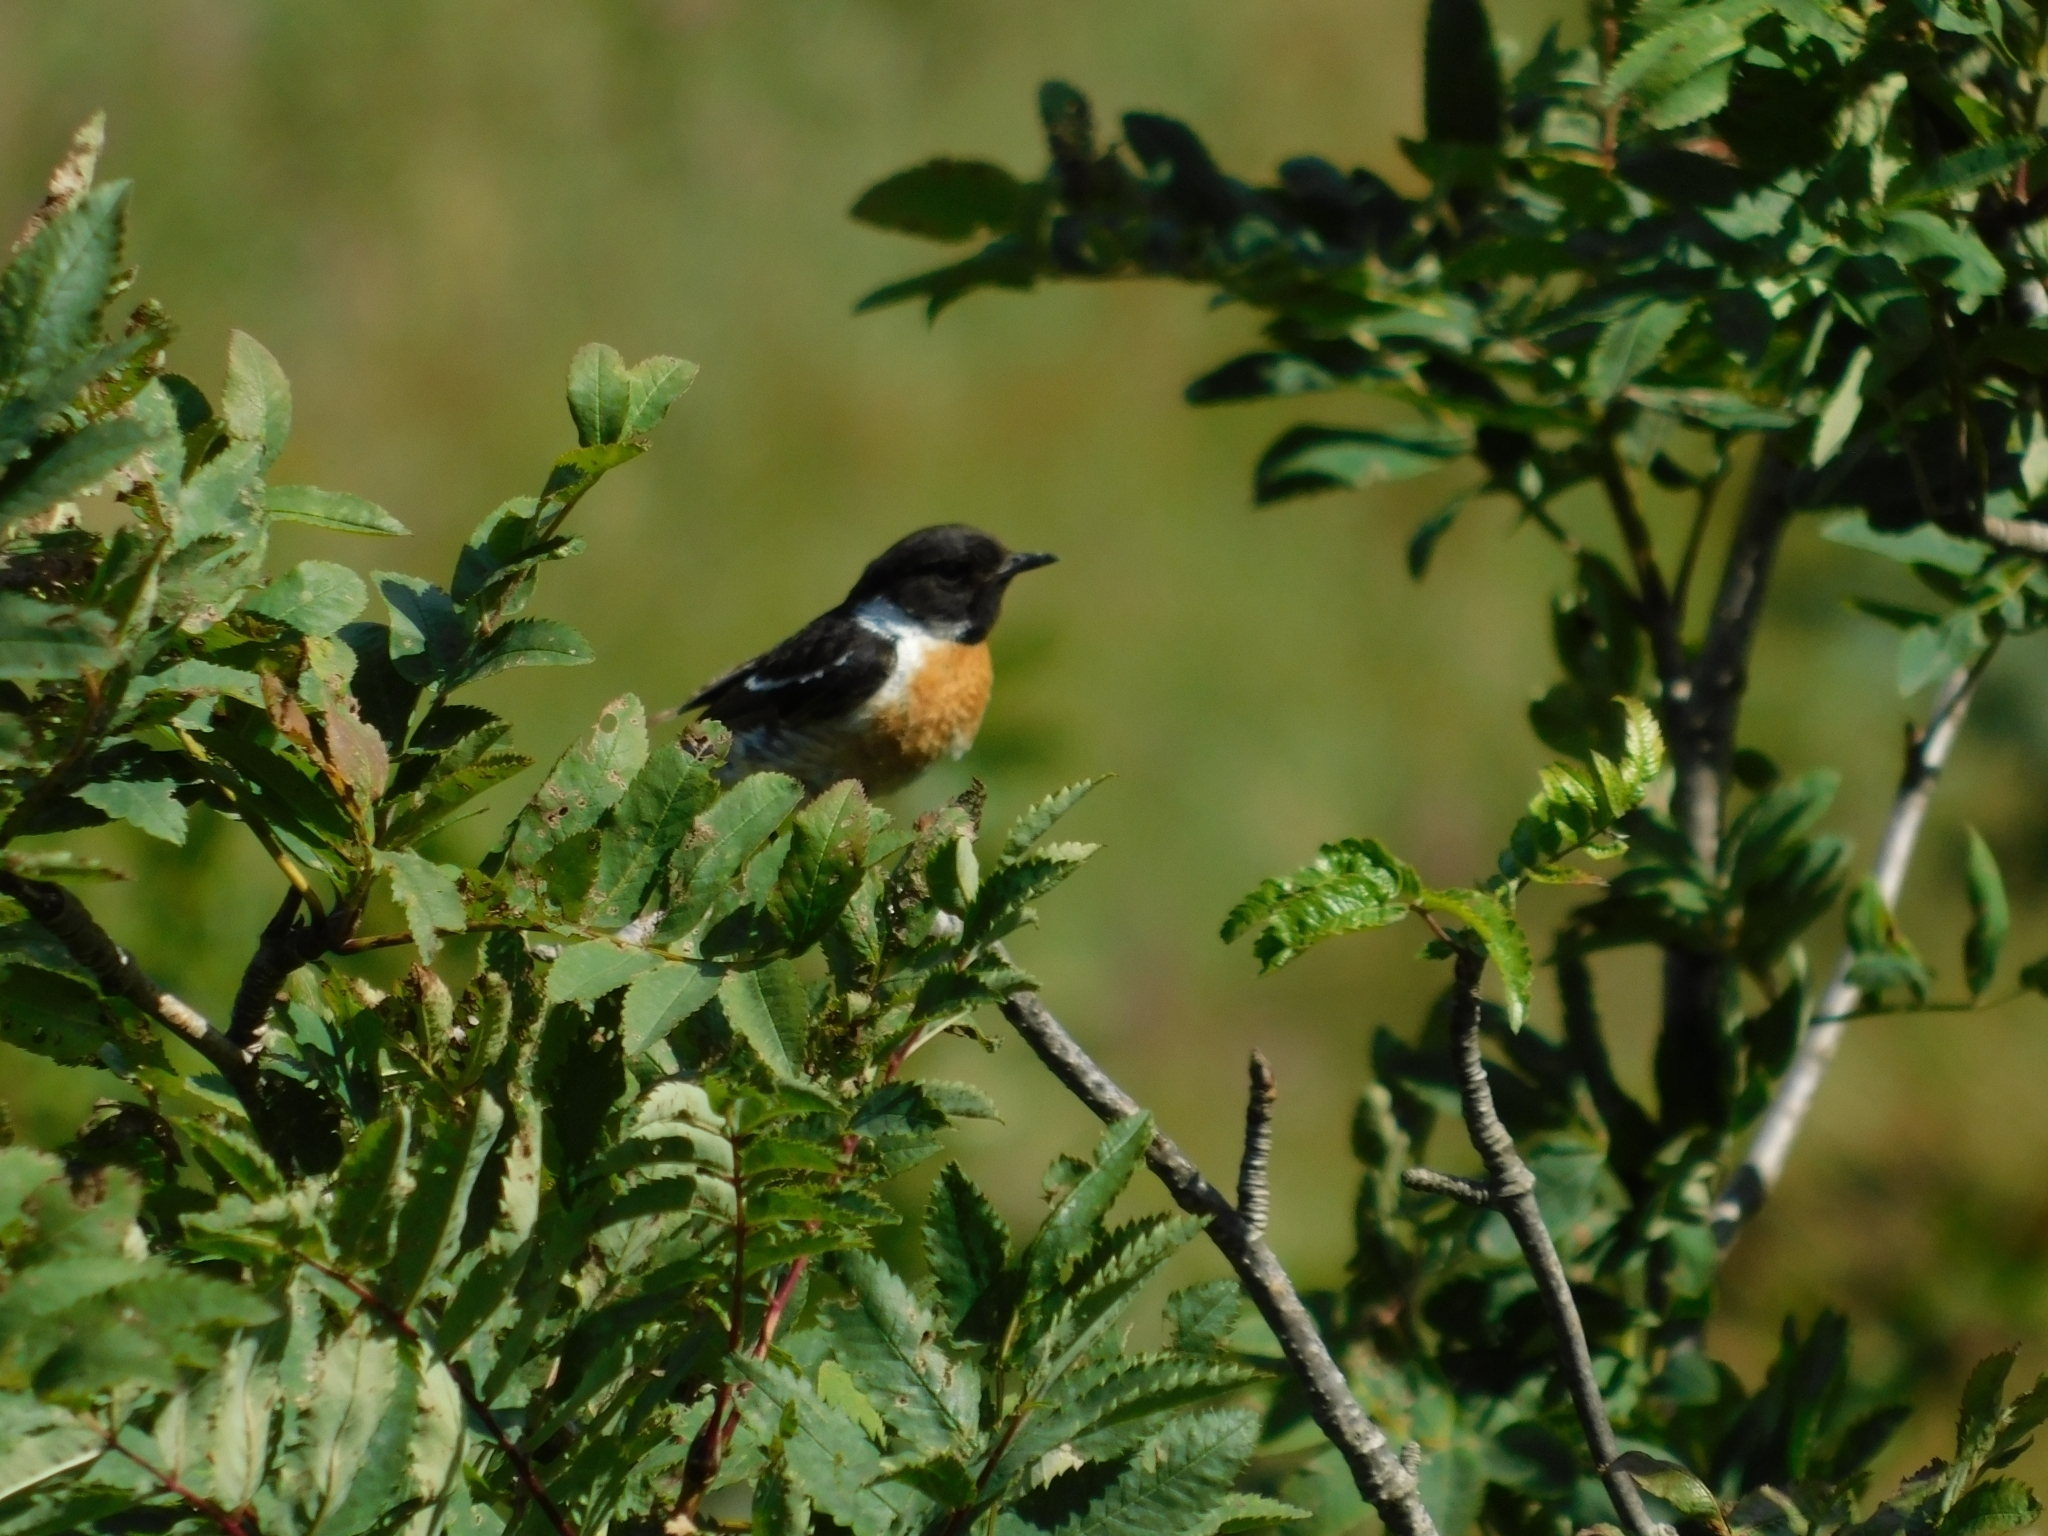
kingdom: Animalia
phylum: Chordata
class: Aves
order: Passeriformes
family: Muscicapidae
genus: Saxicola
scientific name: Saxicola rubicola
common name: European stonechat
